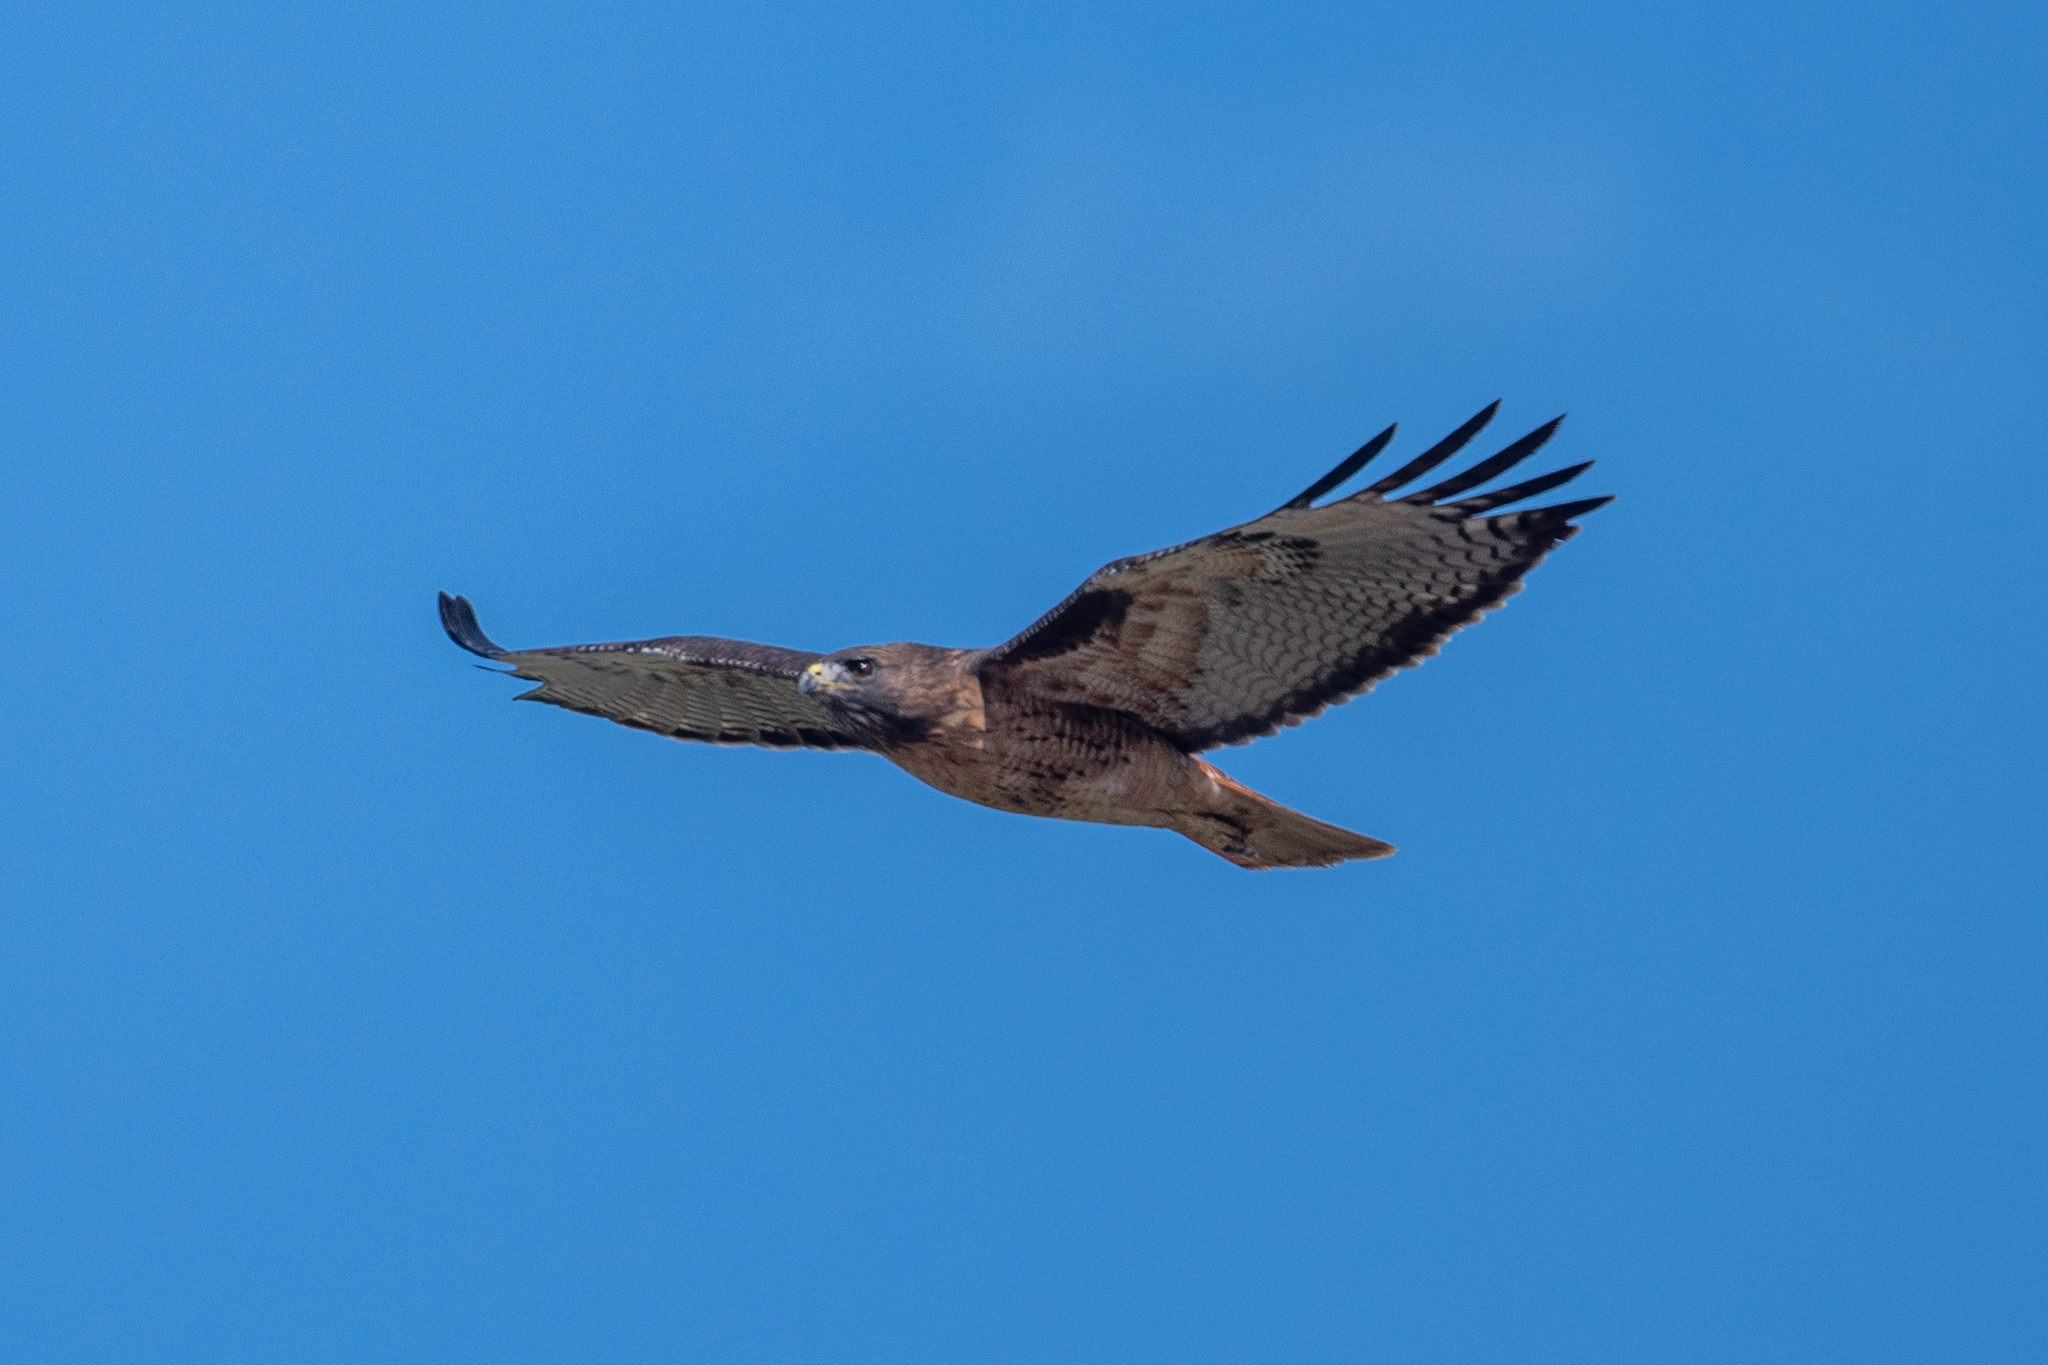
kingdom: Animalia
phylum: Chordata
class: Aves
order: Accipitriformes
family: Accipitridae
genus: Buteo
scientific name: Buteo jamaicensis
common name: Red-tailed hawk
